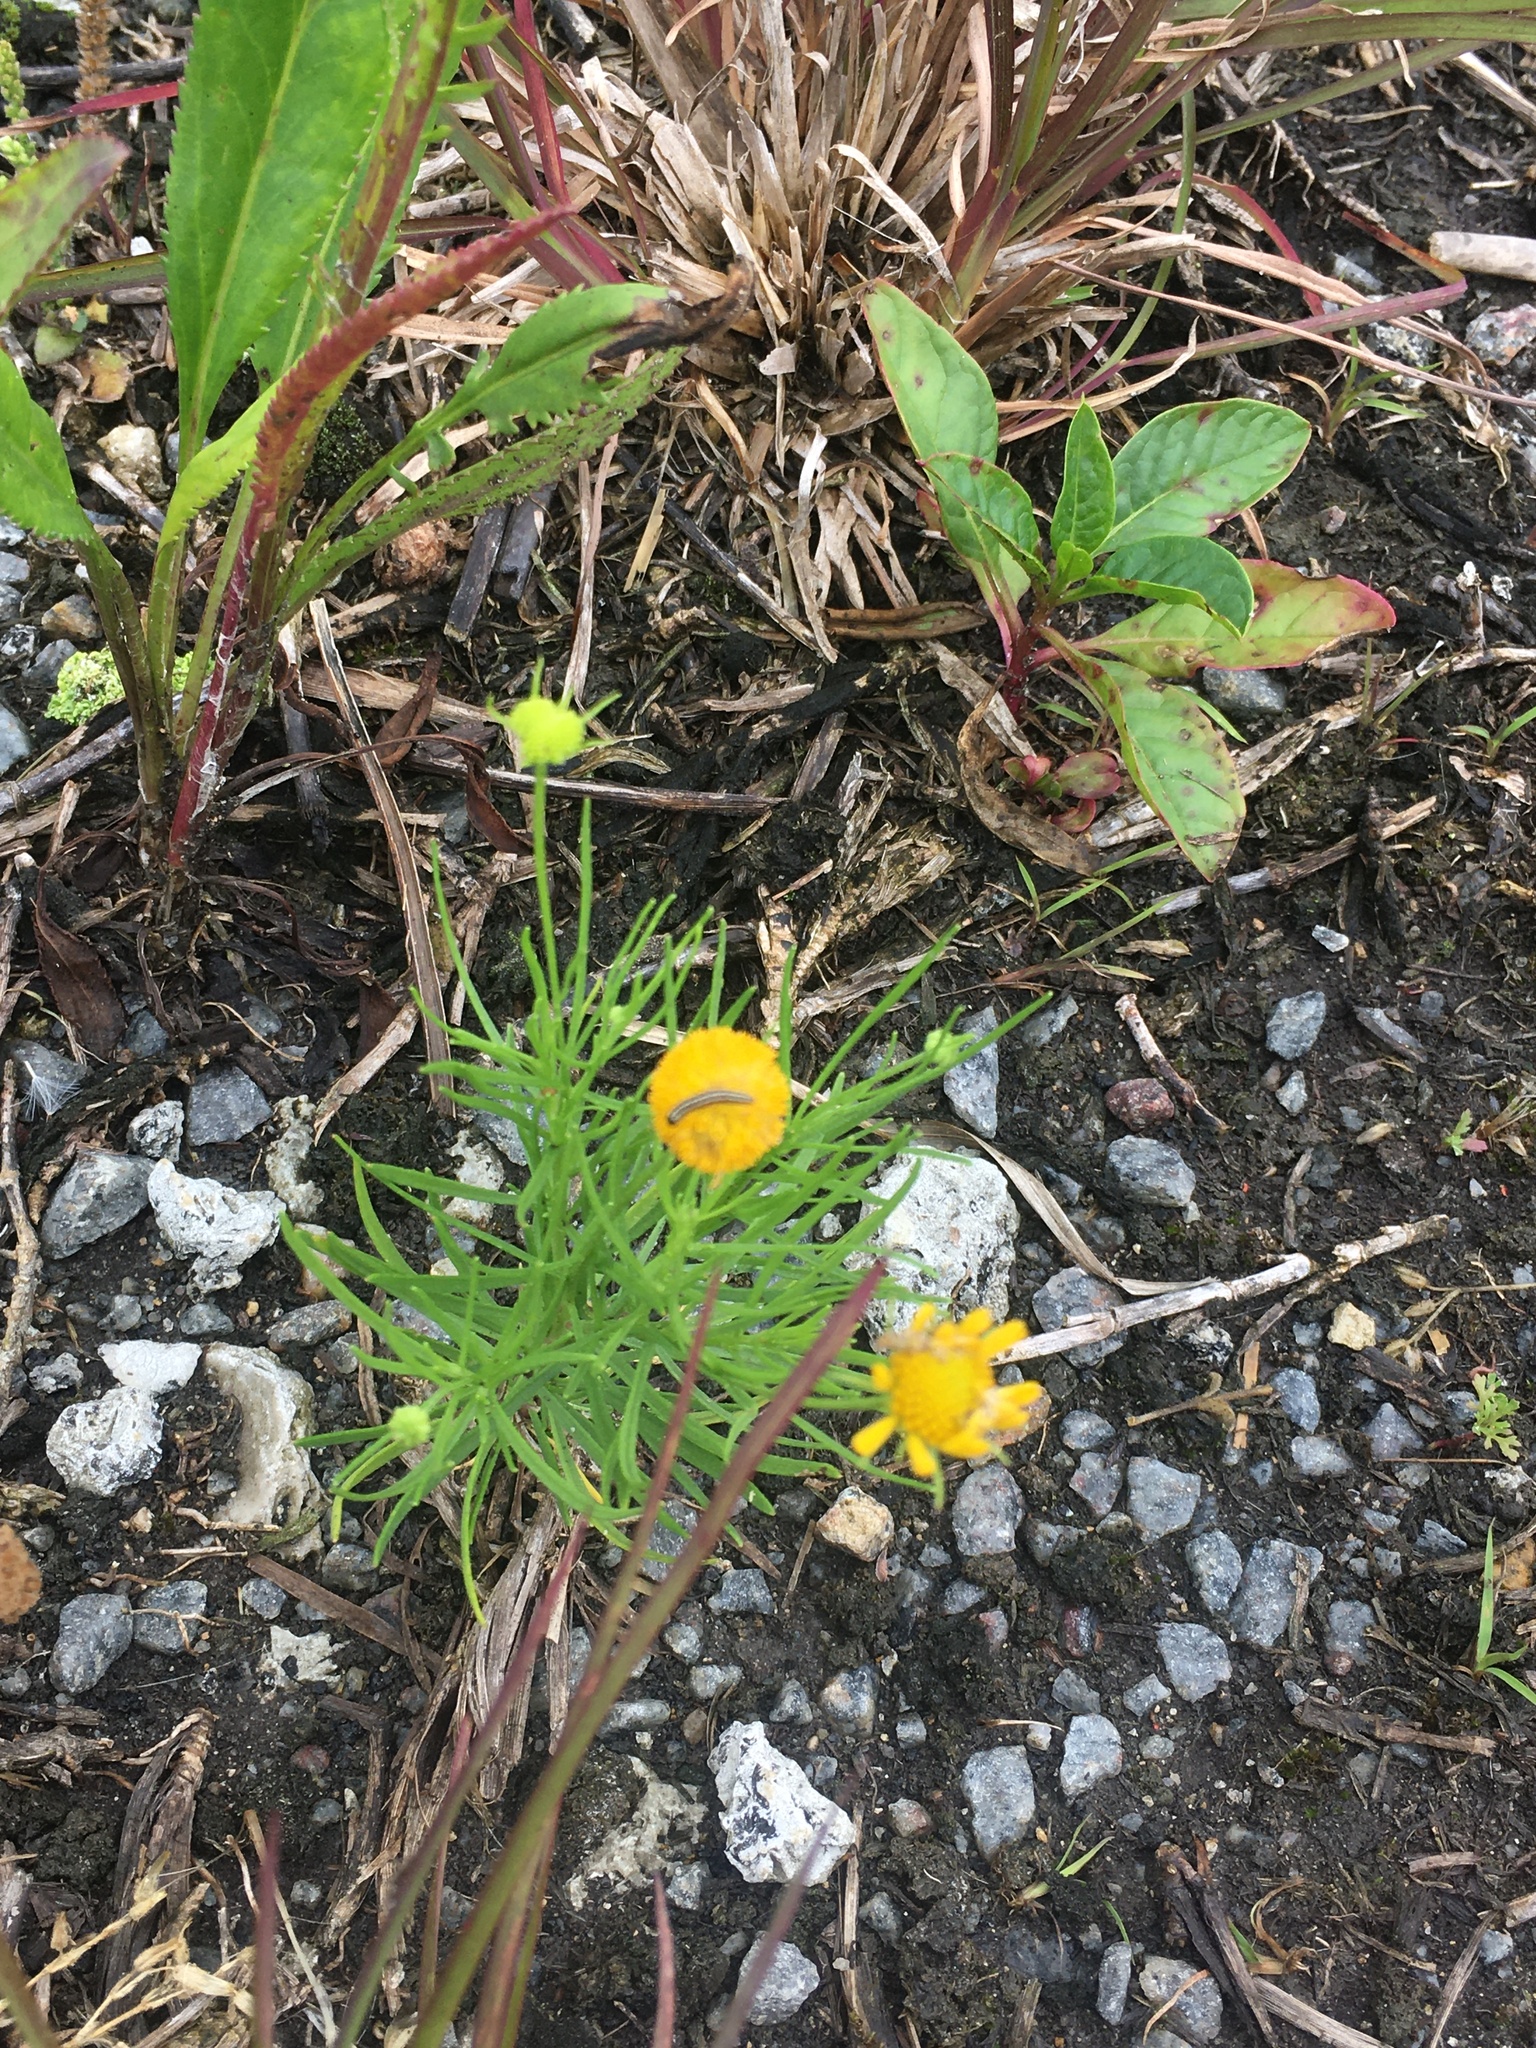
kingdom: Plantae
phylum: Tracheophyta
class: Magnoliopsida
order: Asterales
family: Asteraceae
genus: Helenium
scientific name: Helenium amarum
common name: Bitter sneezeweed
